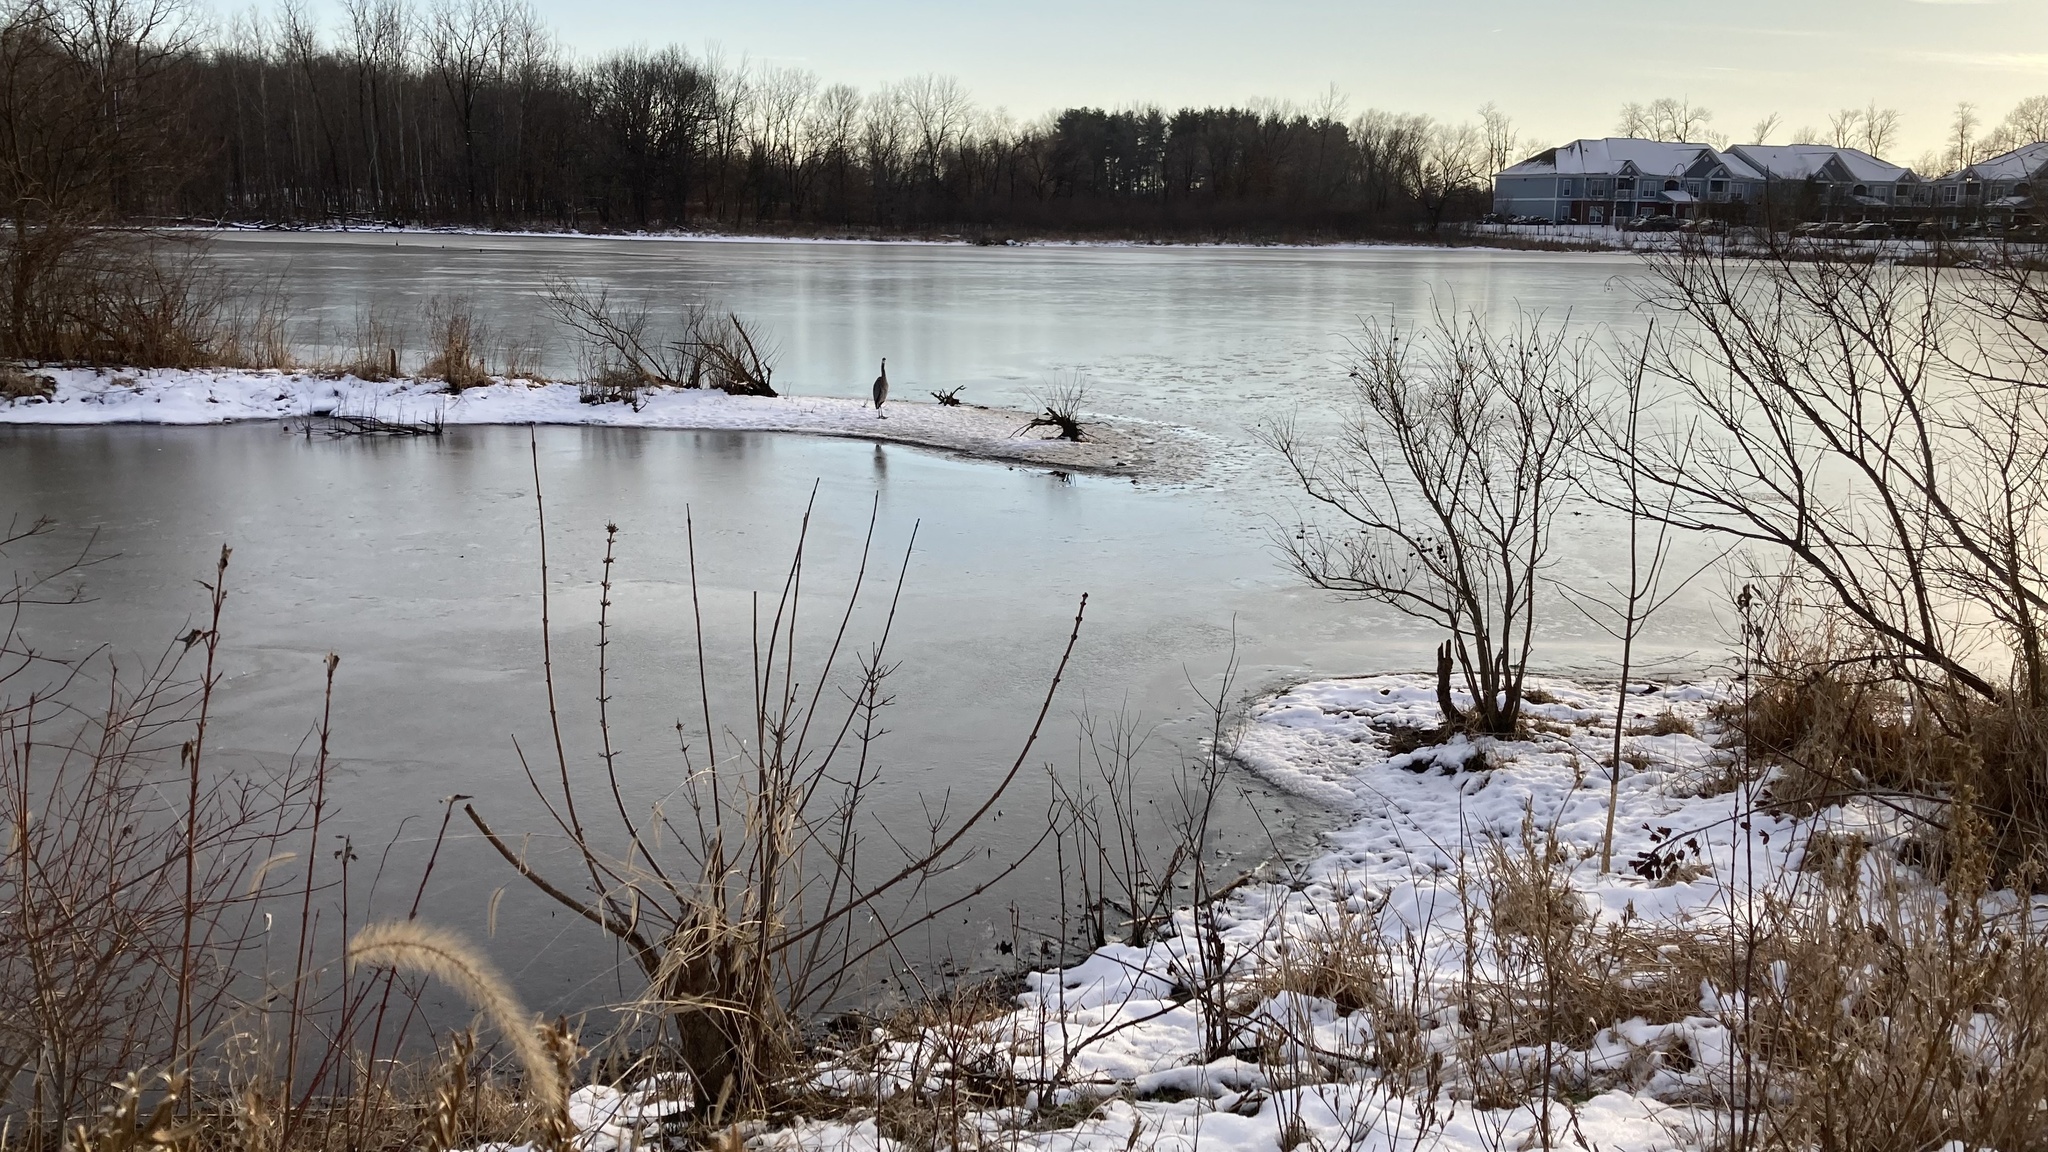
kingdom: Animalia
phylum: Chordata
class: Aves
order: Pelecaniformes
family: Ardeidae
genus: Ardea
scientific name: Ardea herodias
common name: Great blue heron
